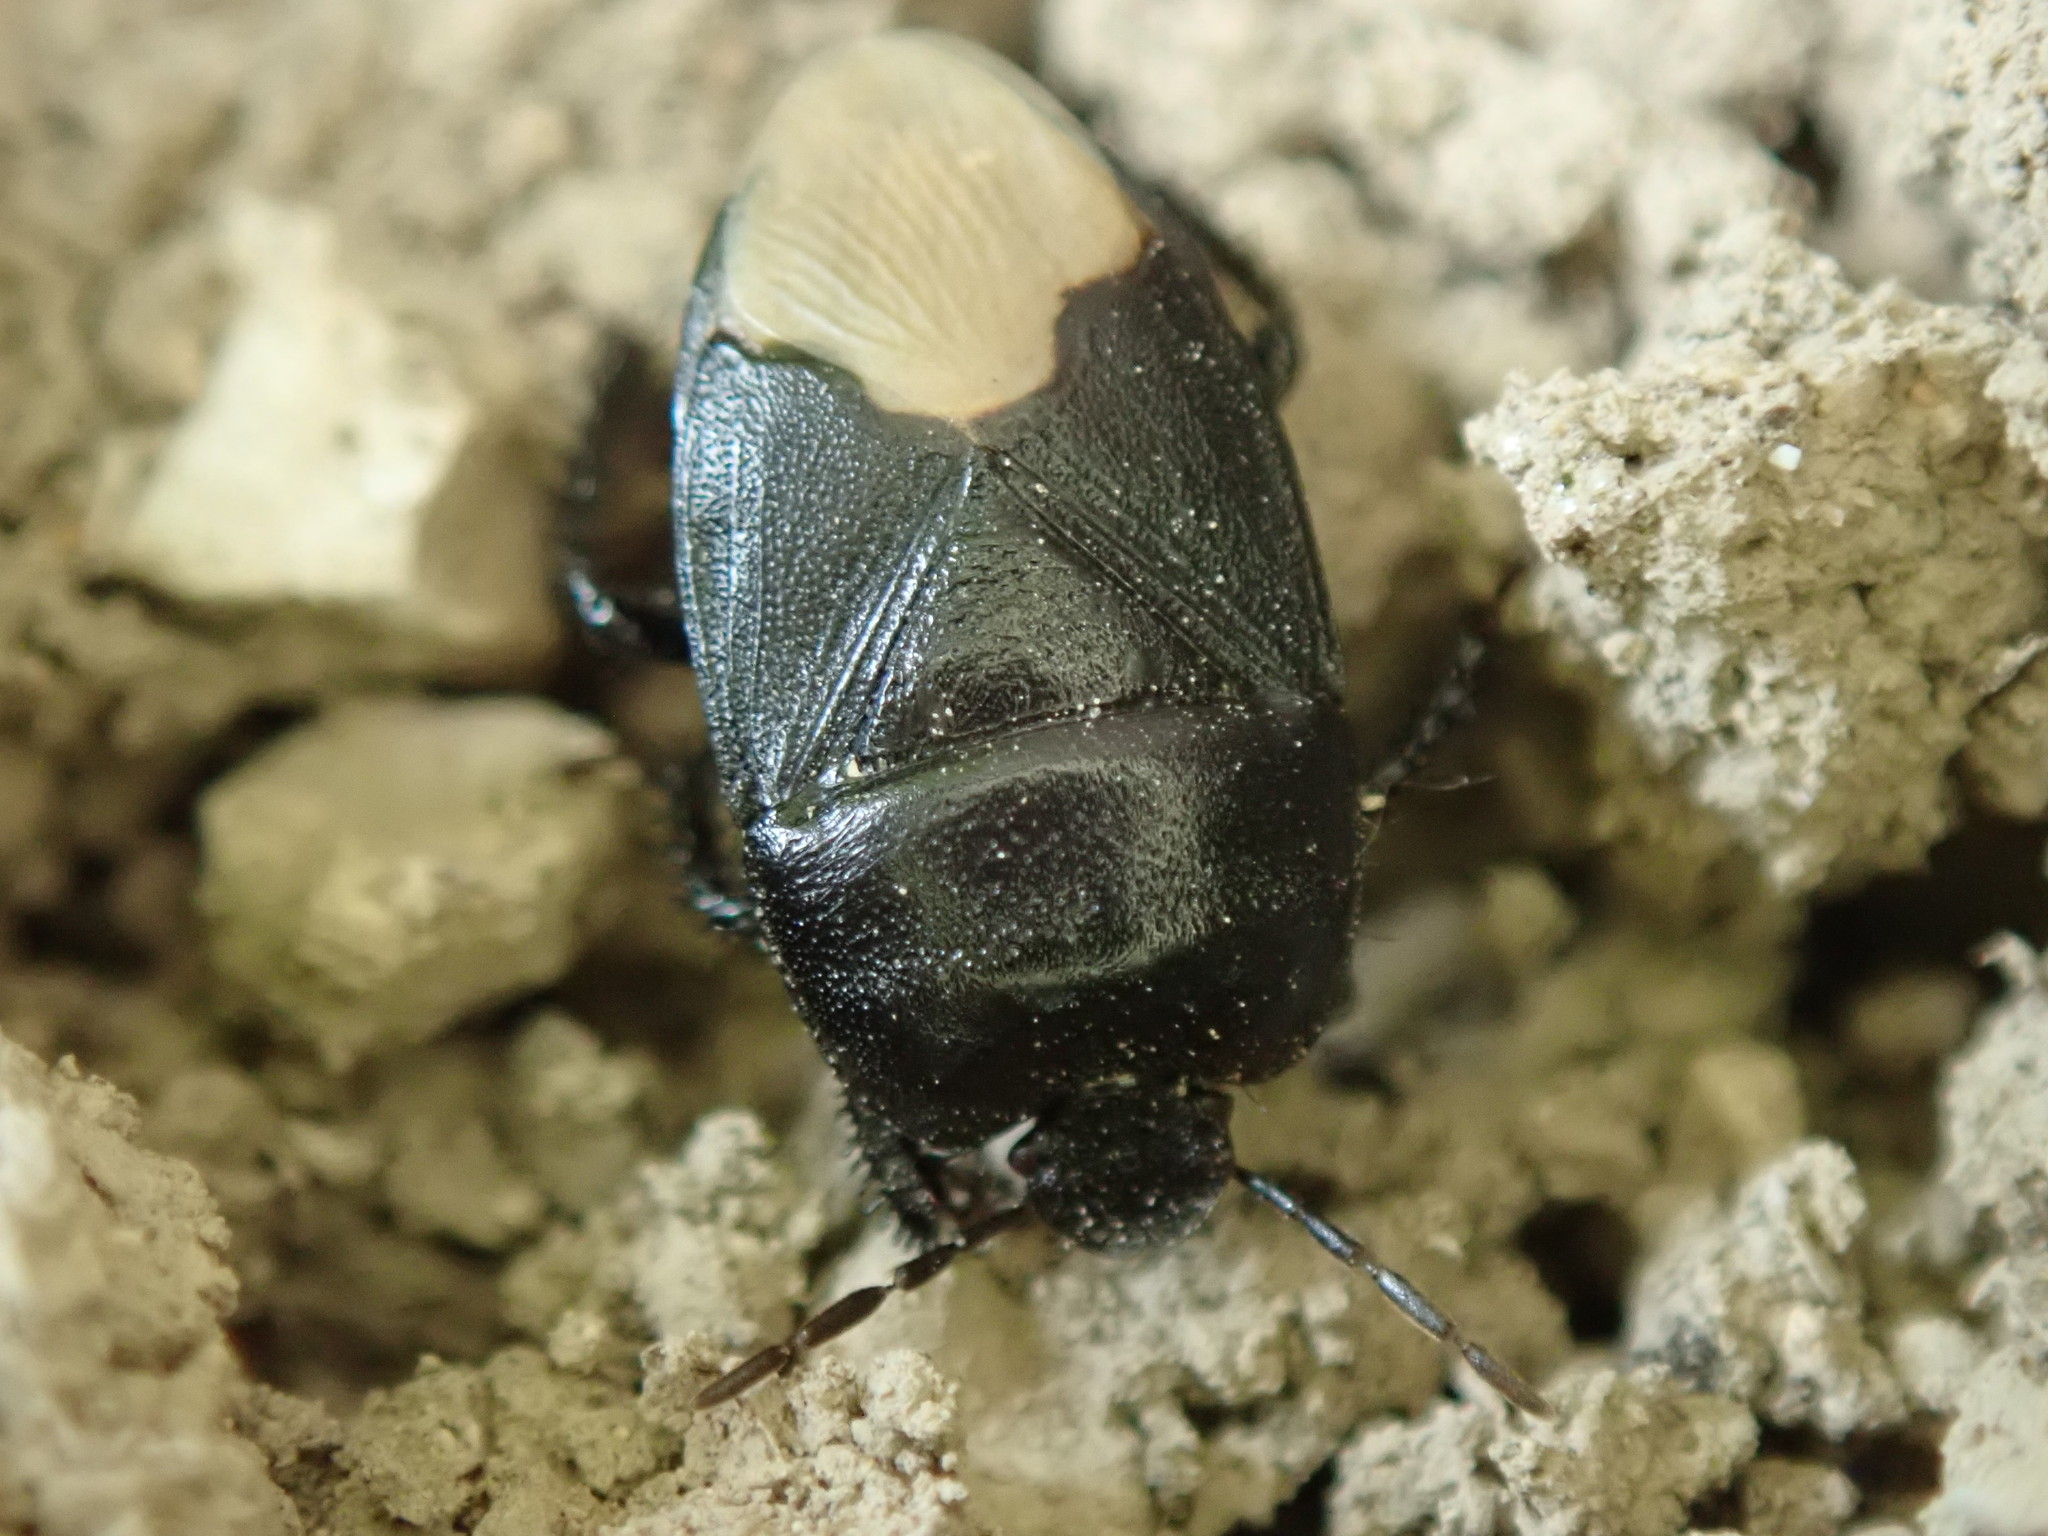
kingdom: Animalia
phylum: Arthropoda
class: Insecta
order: Hemiptera
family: Cydnidae
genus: Cydnus
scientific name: Cydnus aterrimus
